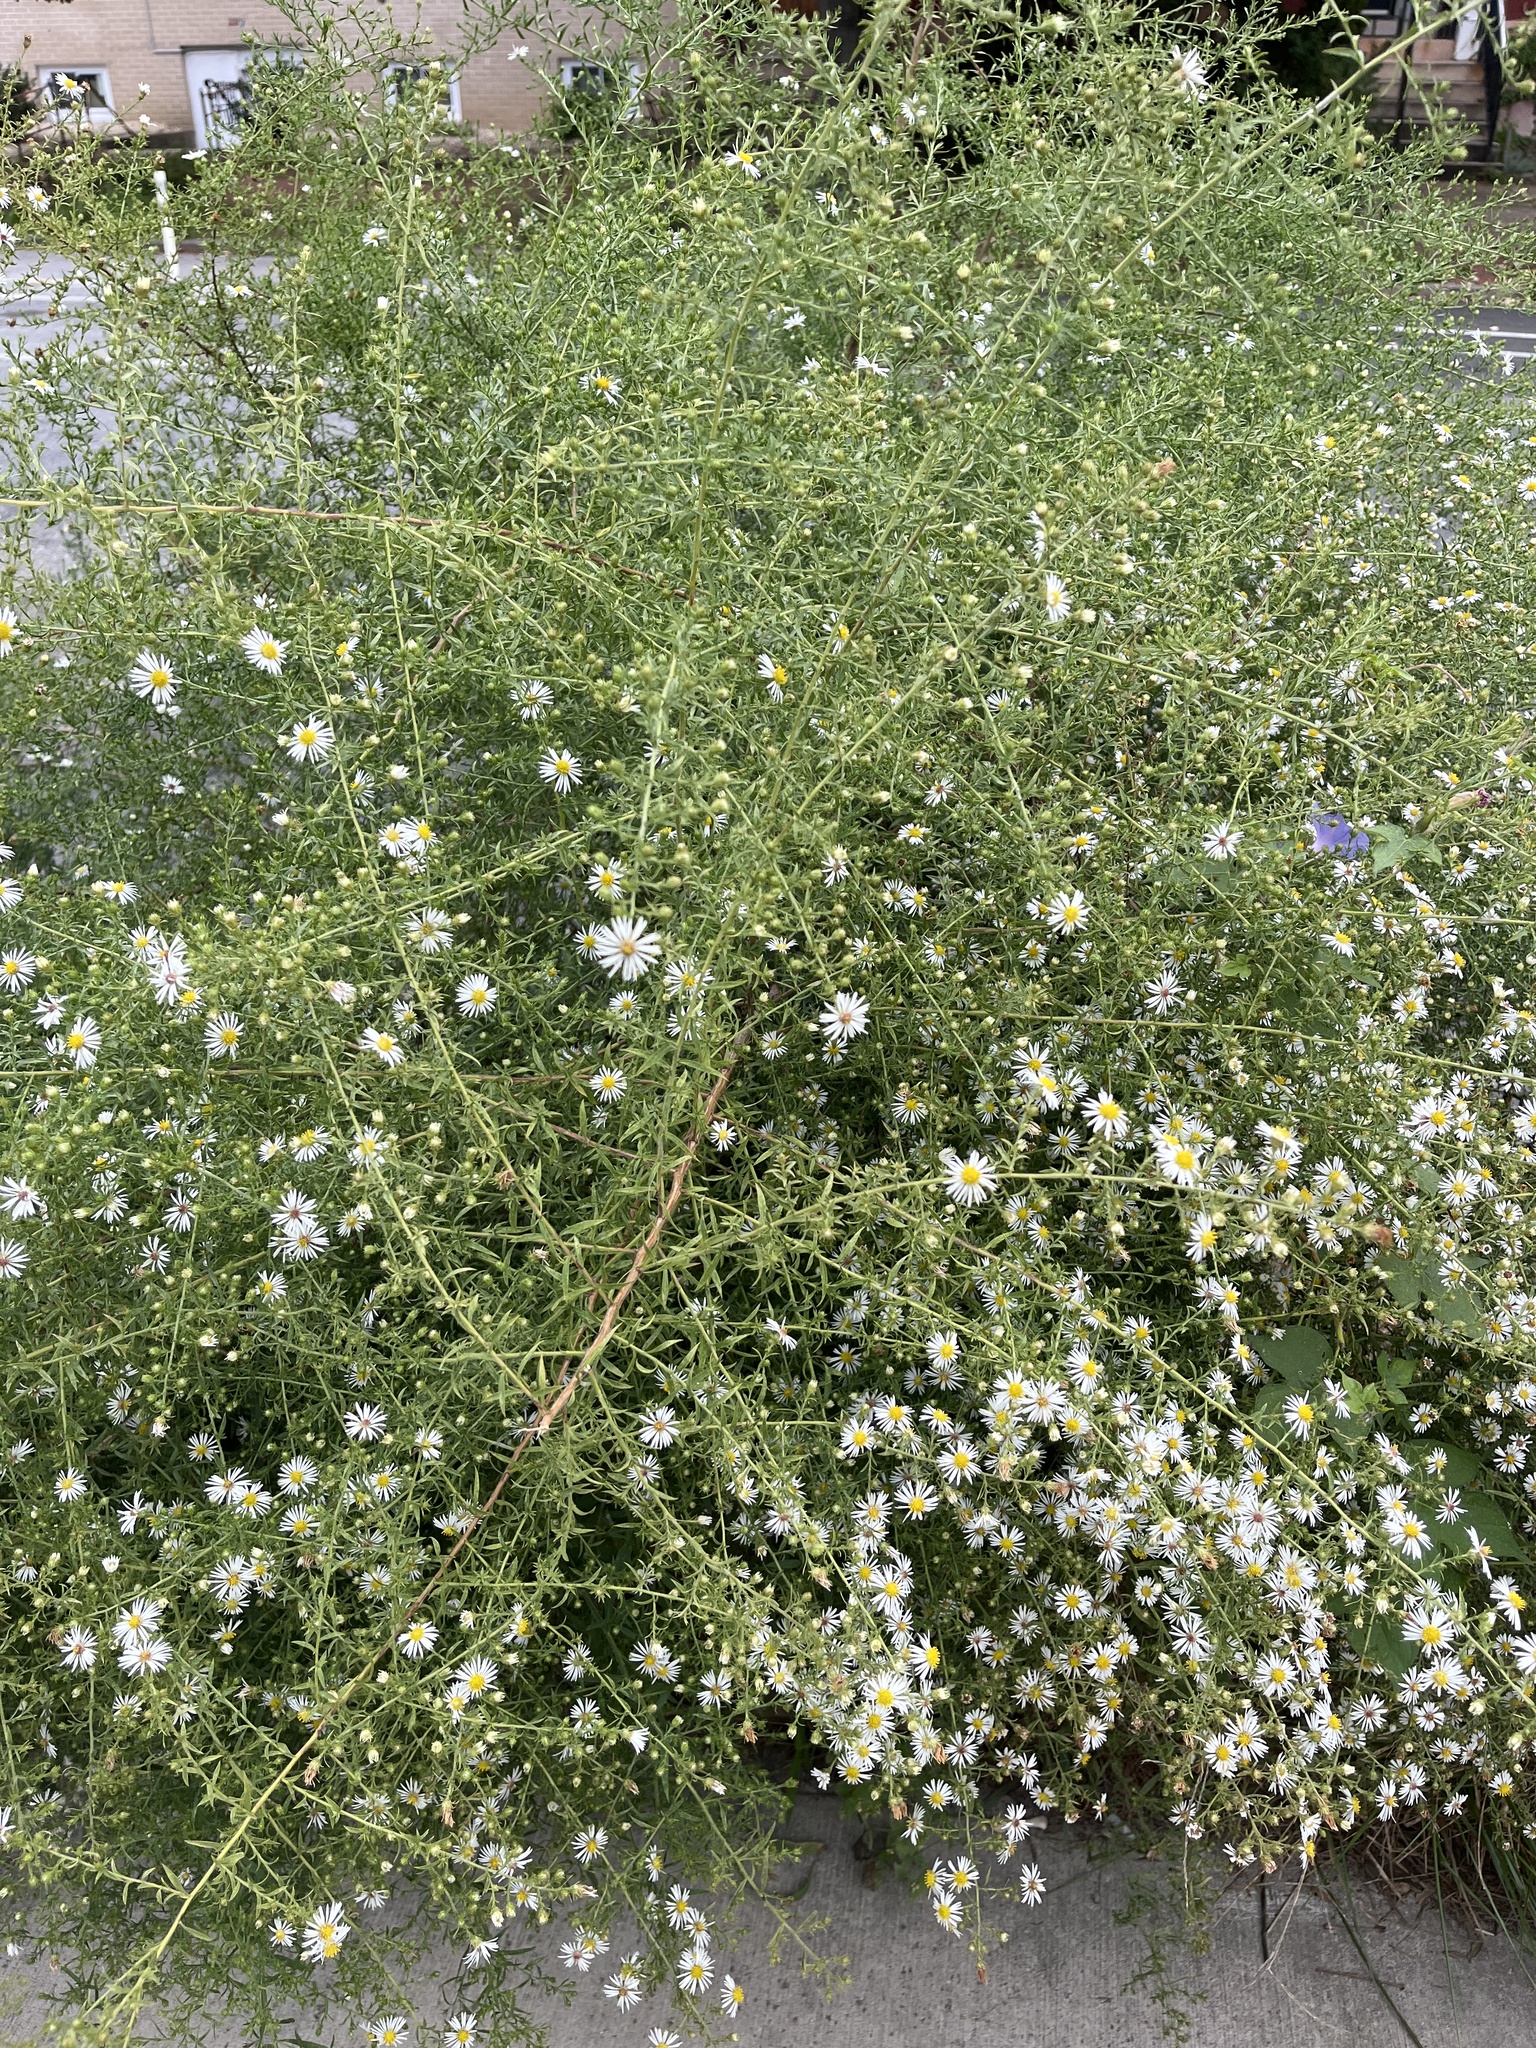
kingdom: Plantae
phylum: Tracheophyta
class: Magnoliopsida
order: Asterales
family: Asteraceae
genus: Symphyotrichum
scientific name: Symphyotrichum pilosum
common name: Awl aster
